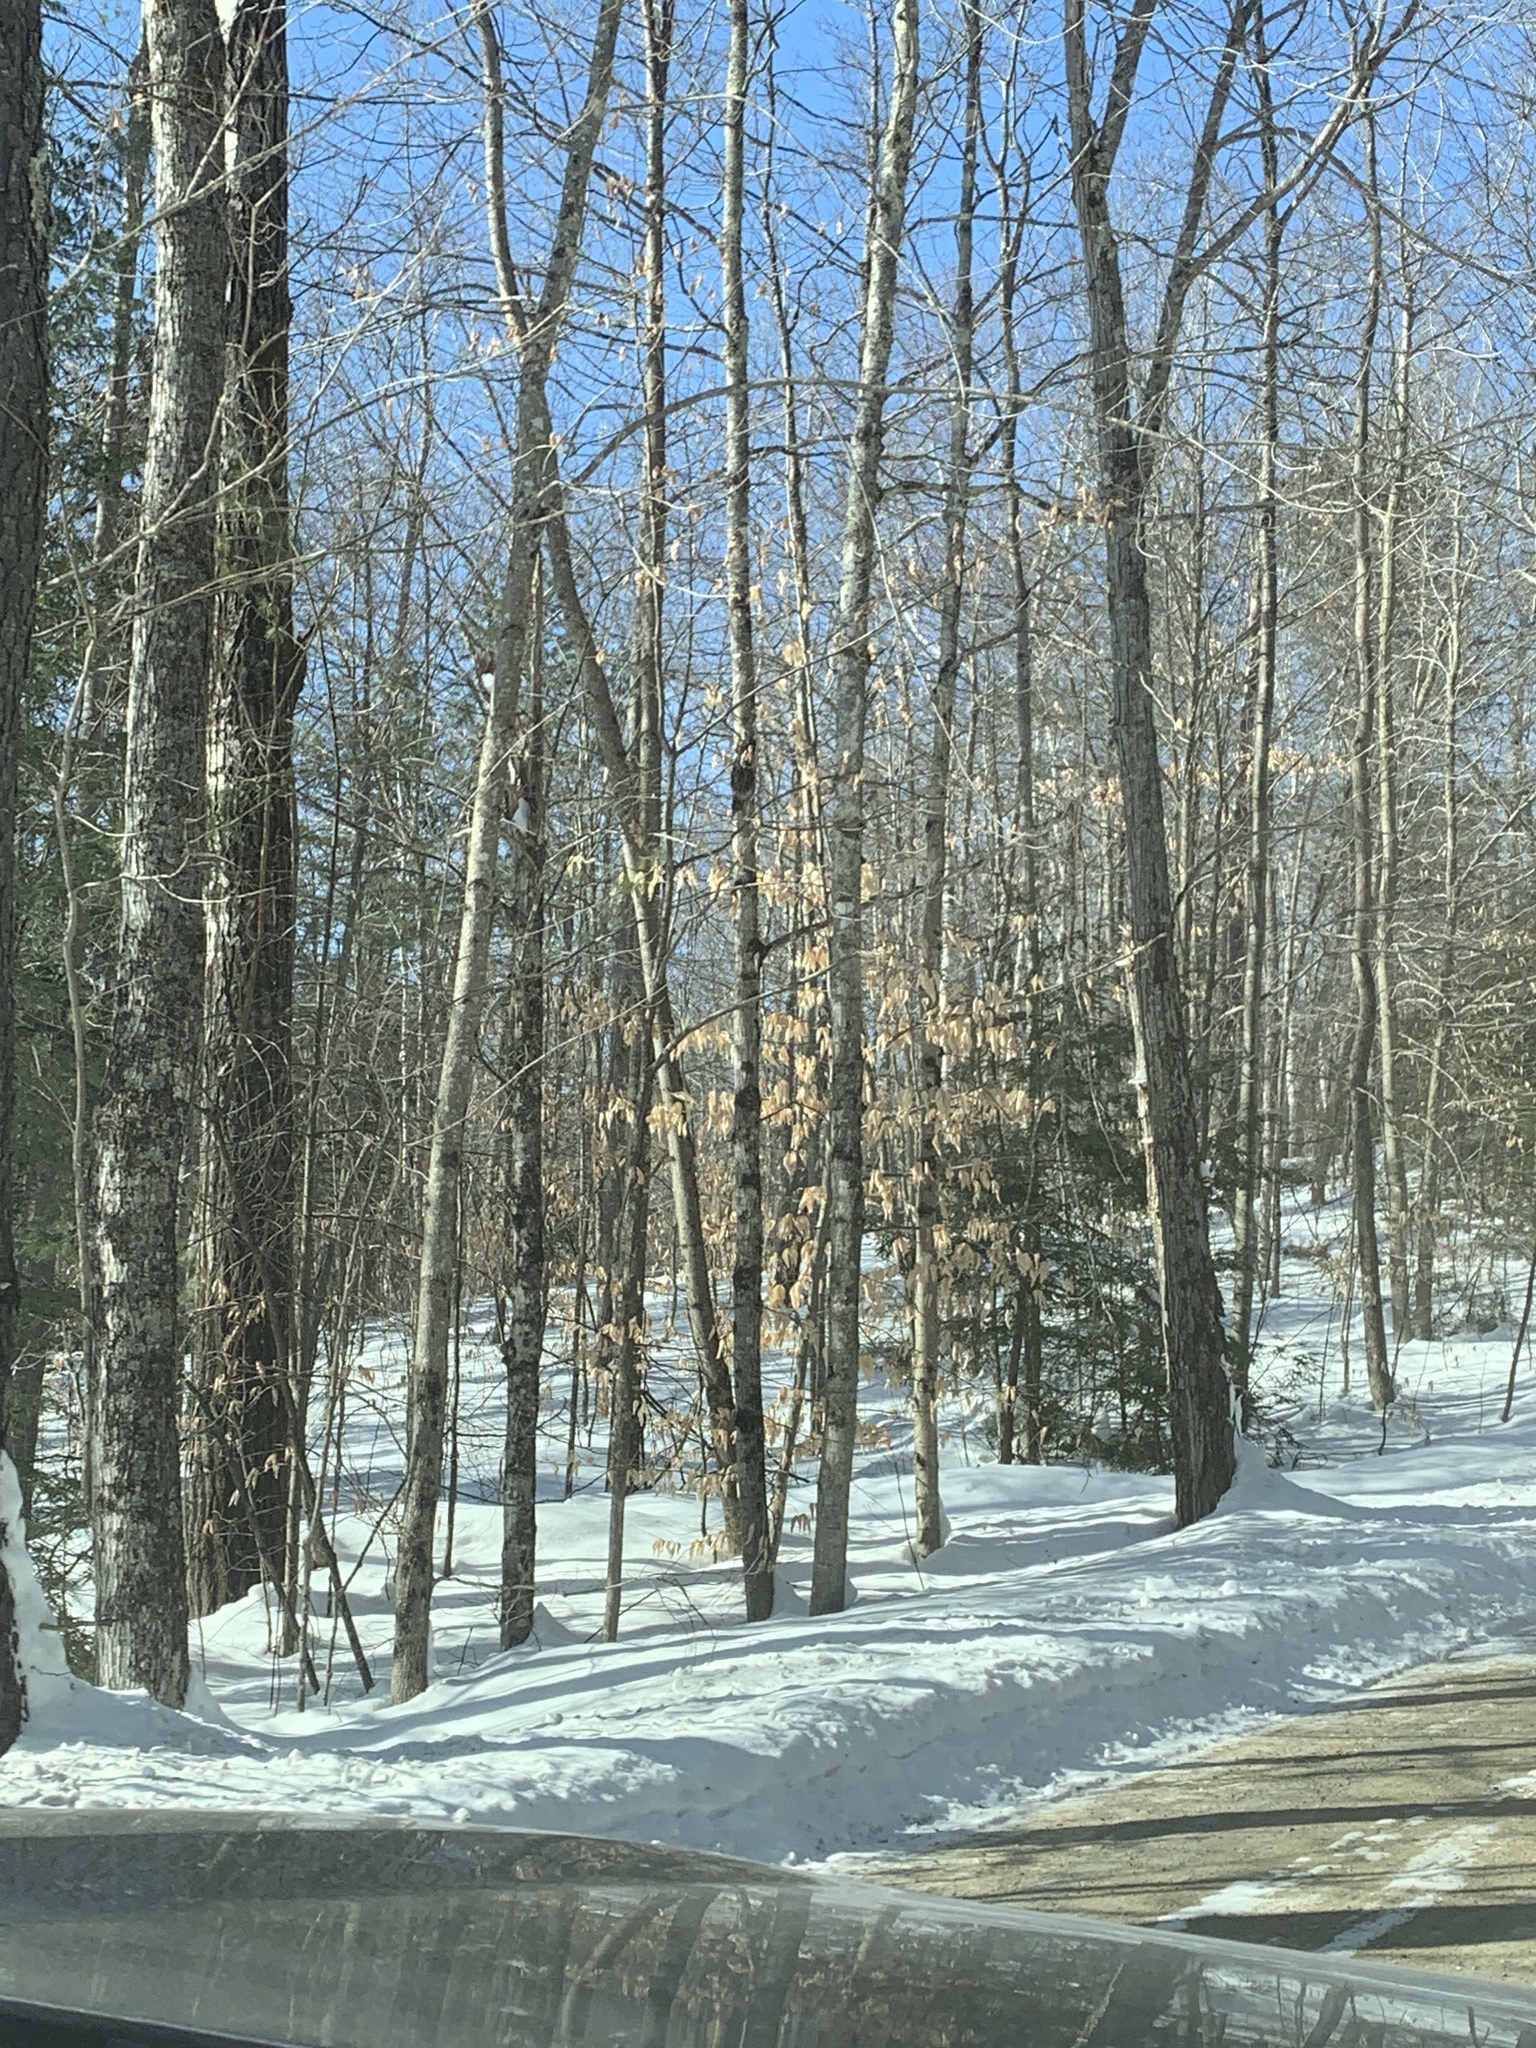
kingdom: Plantae
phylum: Tracheophyta
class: Magnoliopsida
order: Fagales
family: Fagaceae
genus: Fagus
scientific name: Fagus grandifolia
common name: American beech
